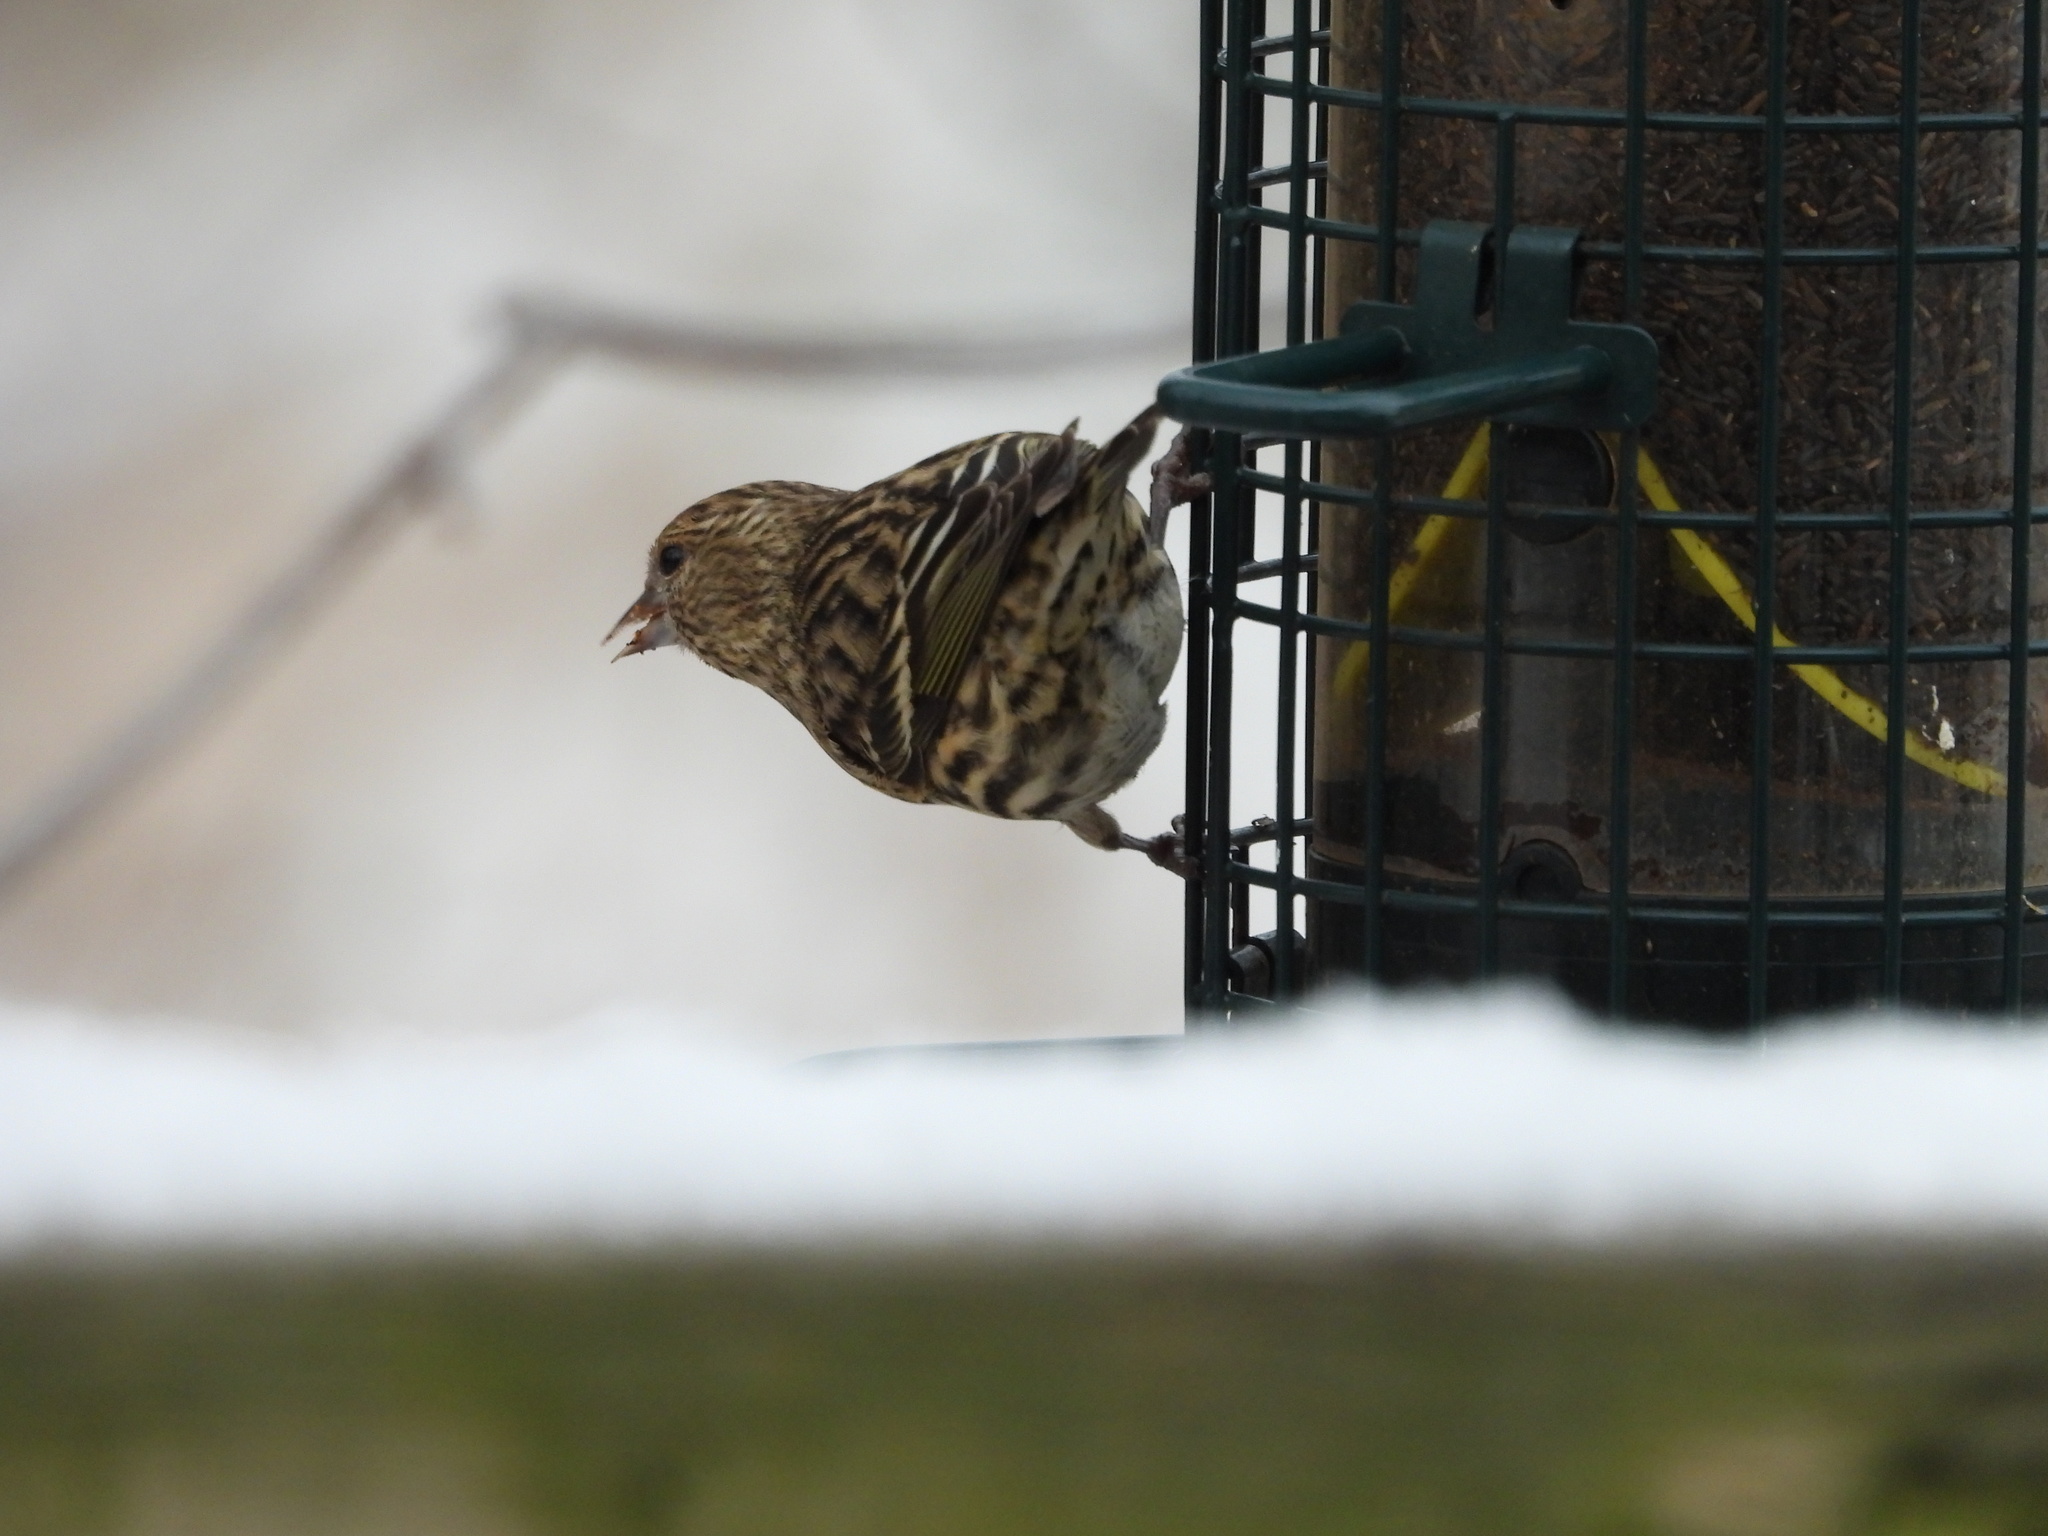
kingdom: Animalia
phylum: Chordata
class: Aves
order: Passeriformes
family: Fringillidae
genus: Spinus
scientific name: Spinus pinus
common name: Pine siskin
